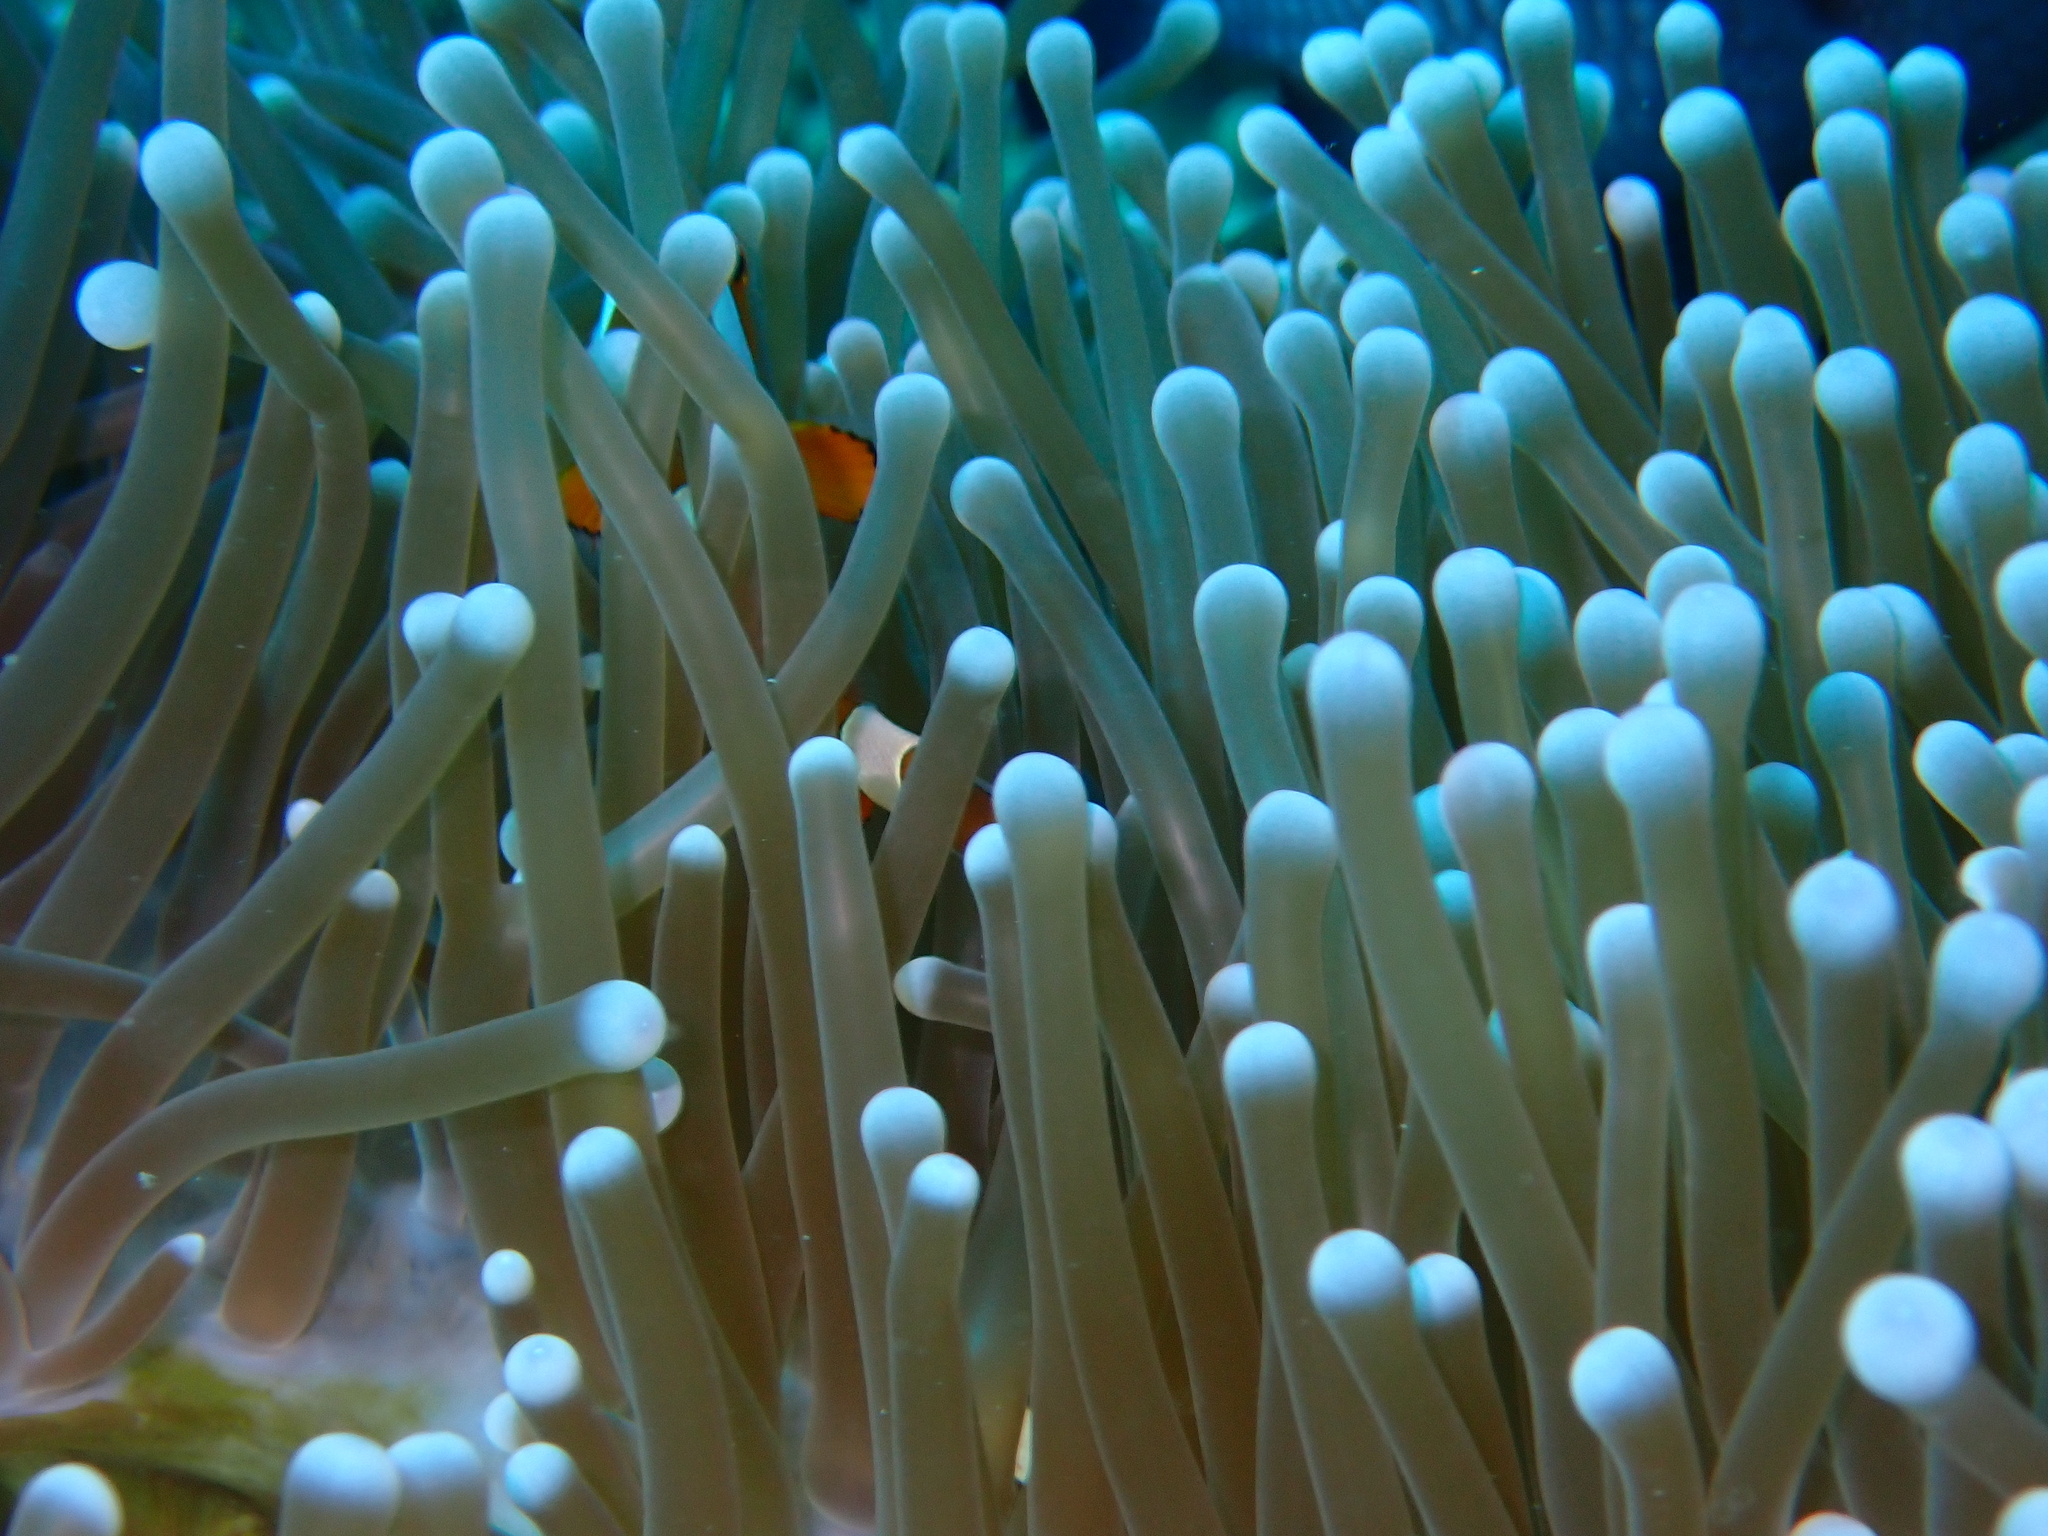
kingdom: Animalia
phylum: Cnidaria
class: Anthozoa
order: Actiniaria
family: Stichodactylidae
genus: Radianthus
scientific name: Radianthus magnifica
